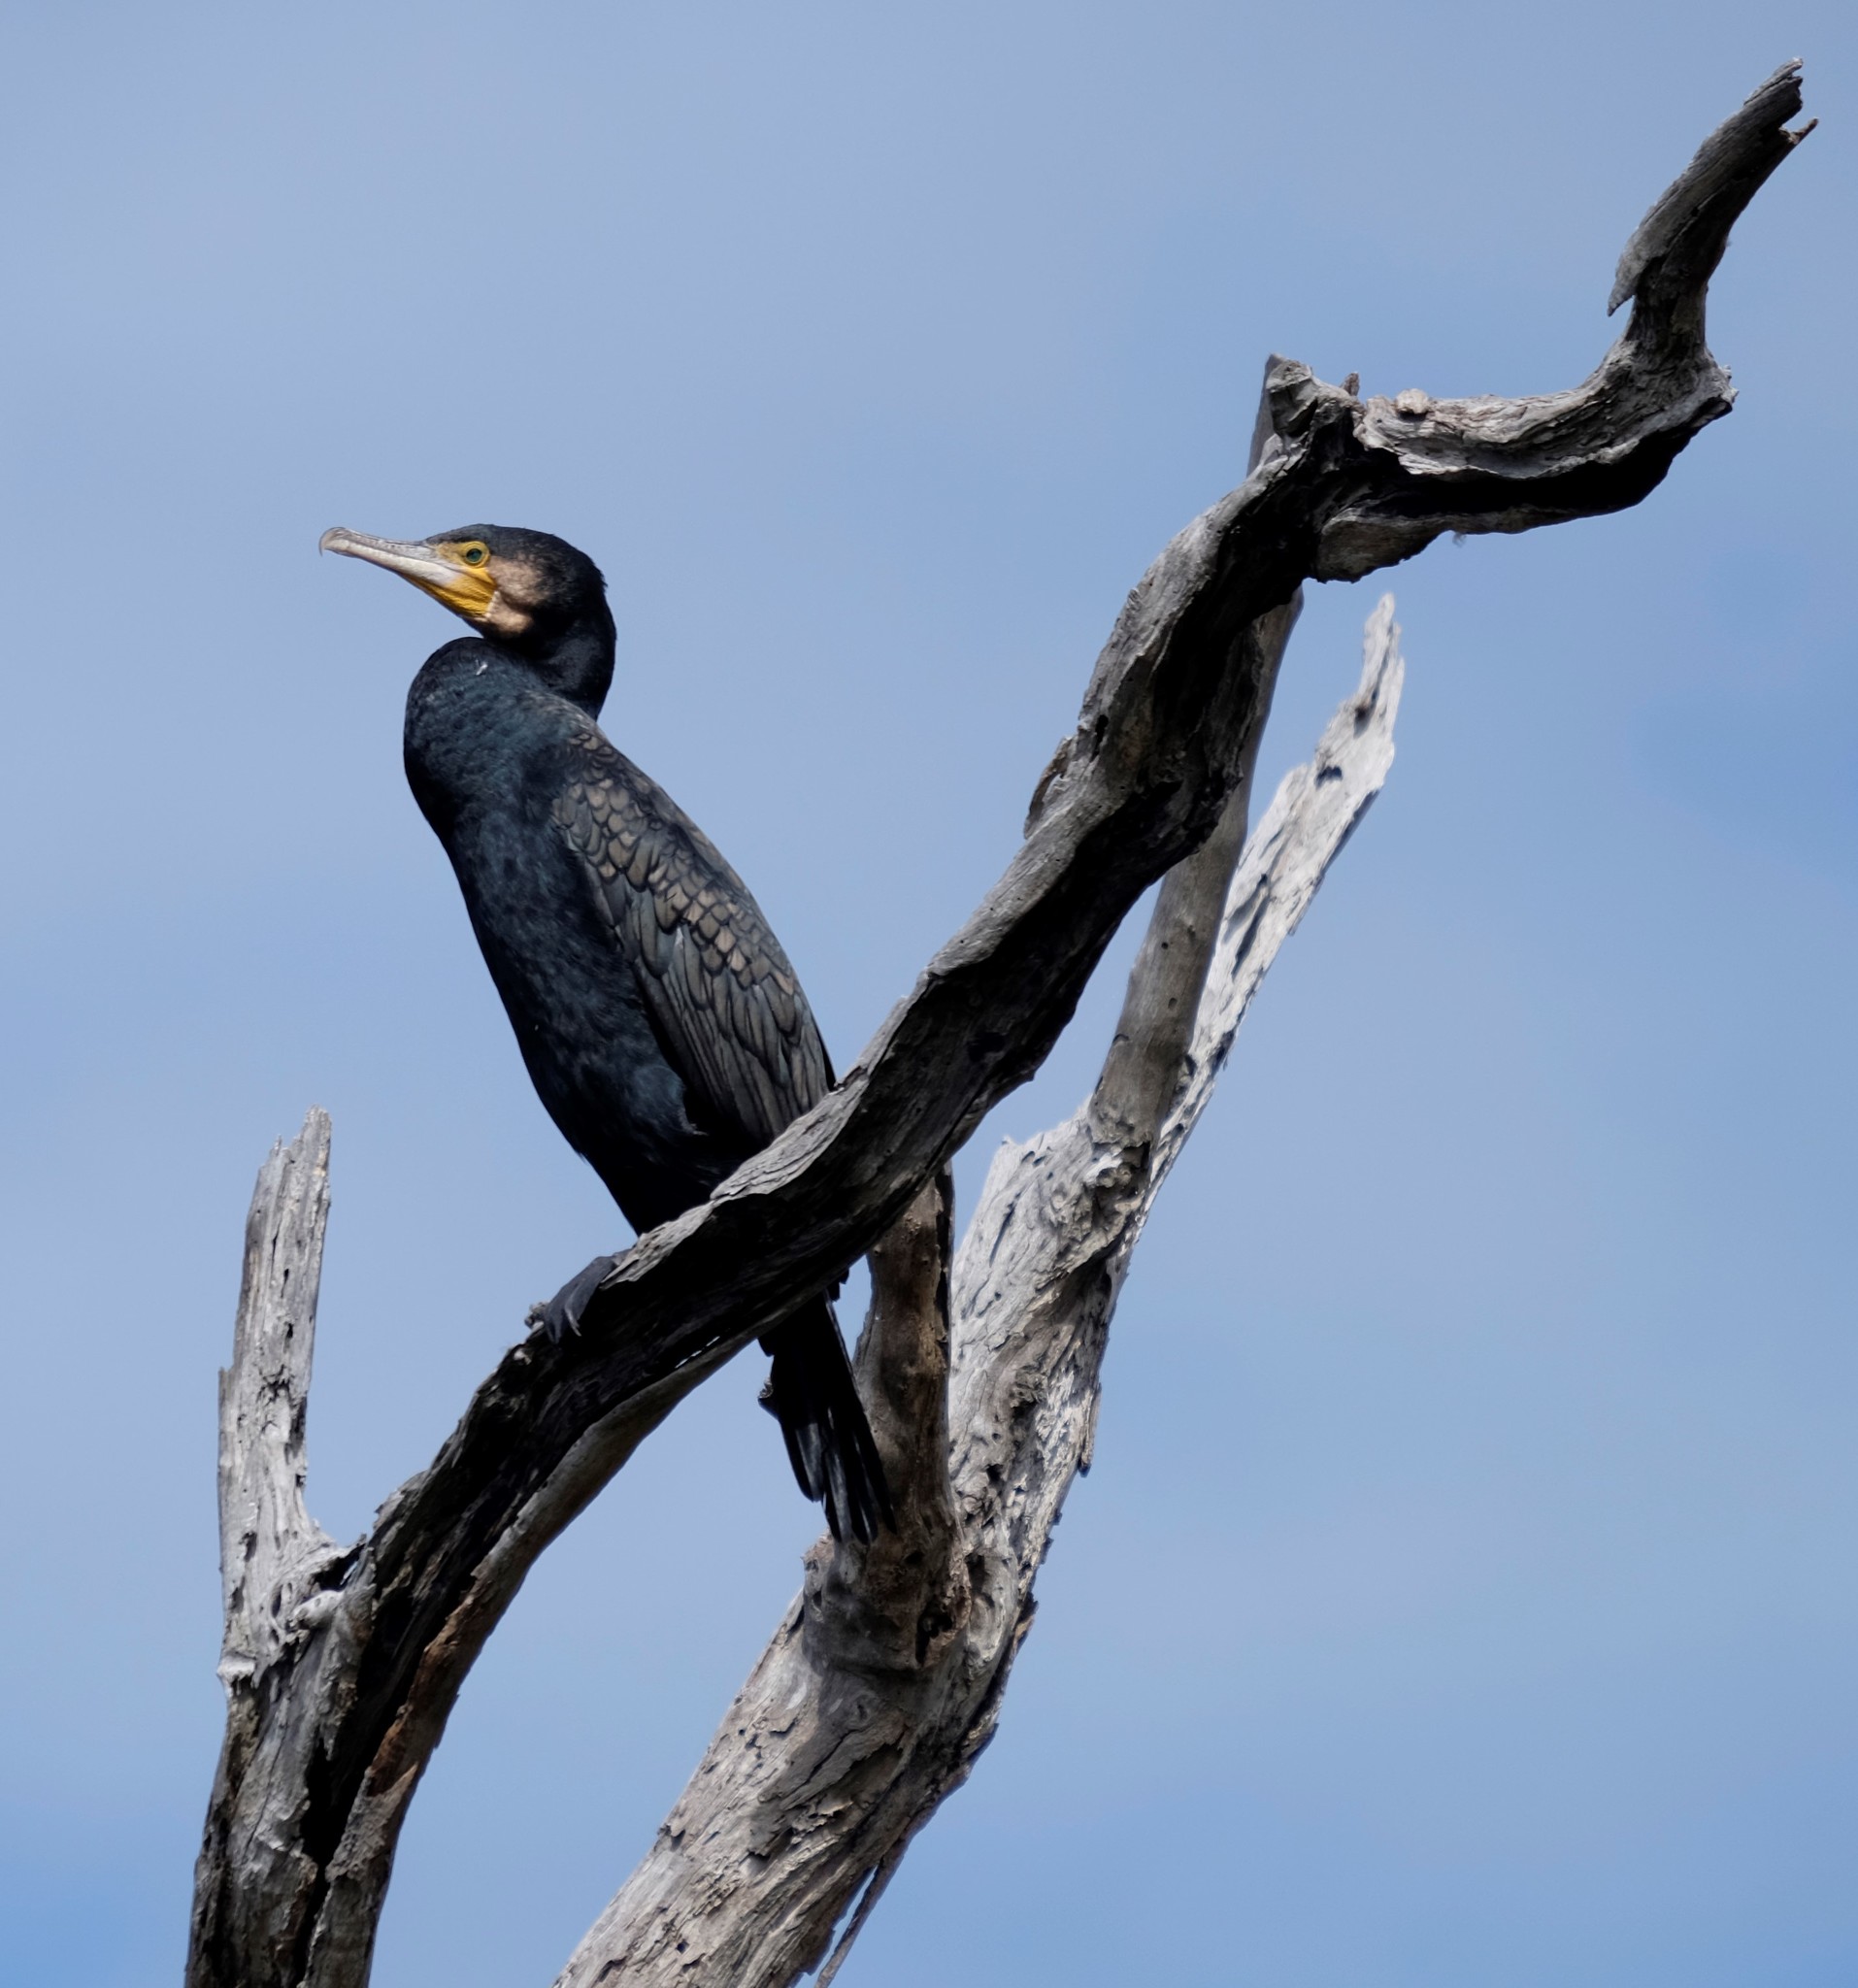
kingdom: Animalia
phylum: Chordata
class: Aves
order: Suliformes
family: Phalacrocoracidae
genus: Phalacrocorax
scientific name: Phalacrocorax carbo
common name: Great cormorant
